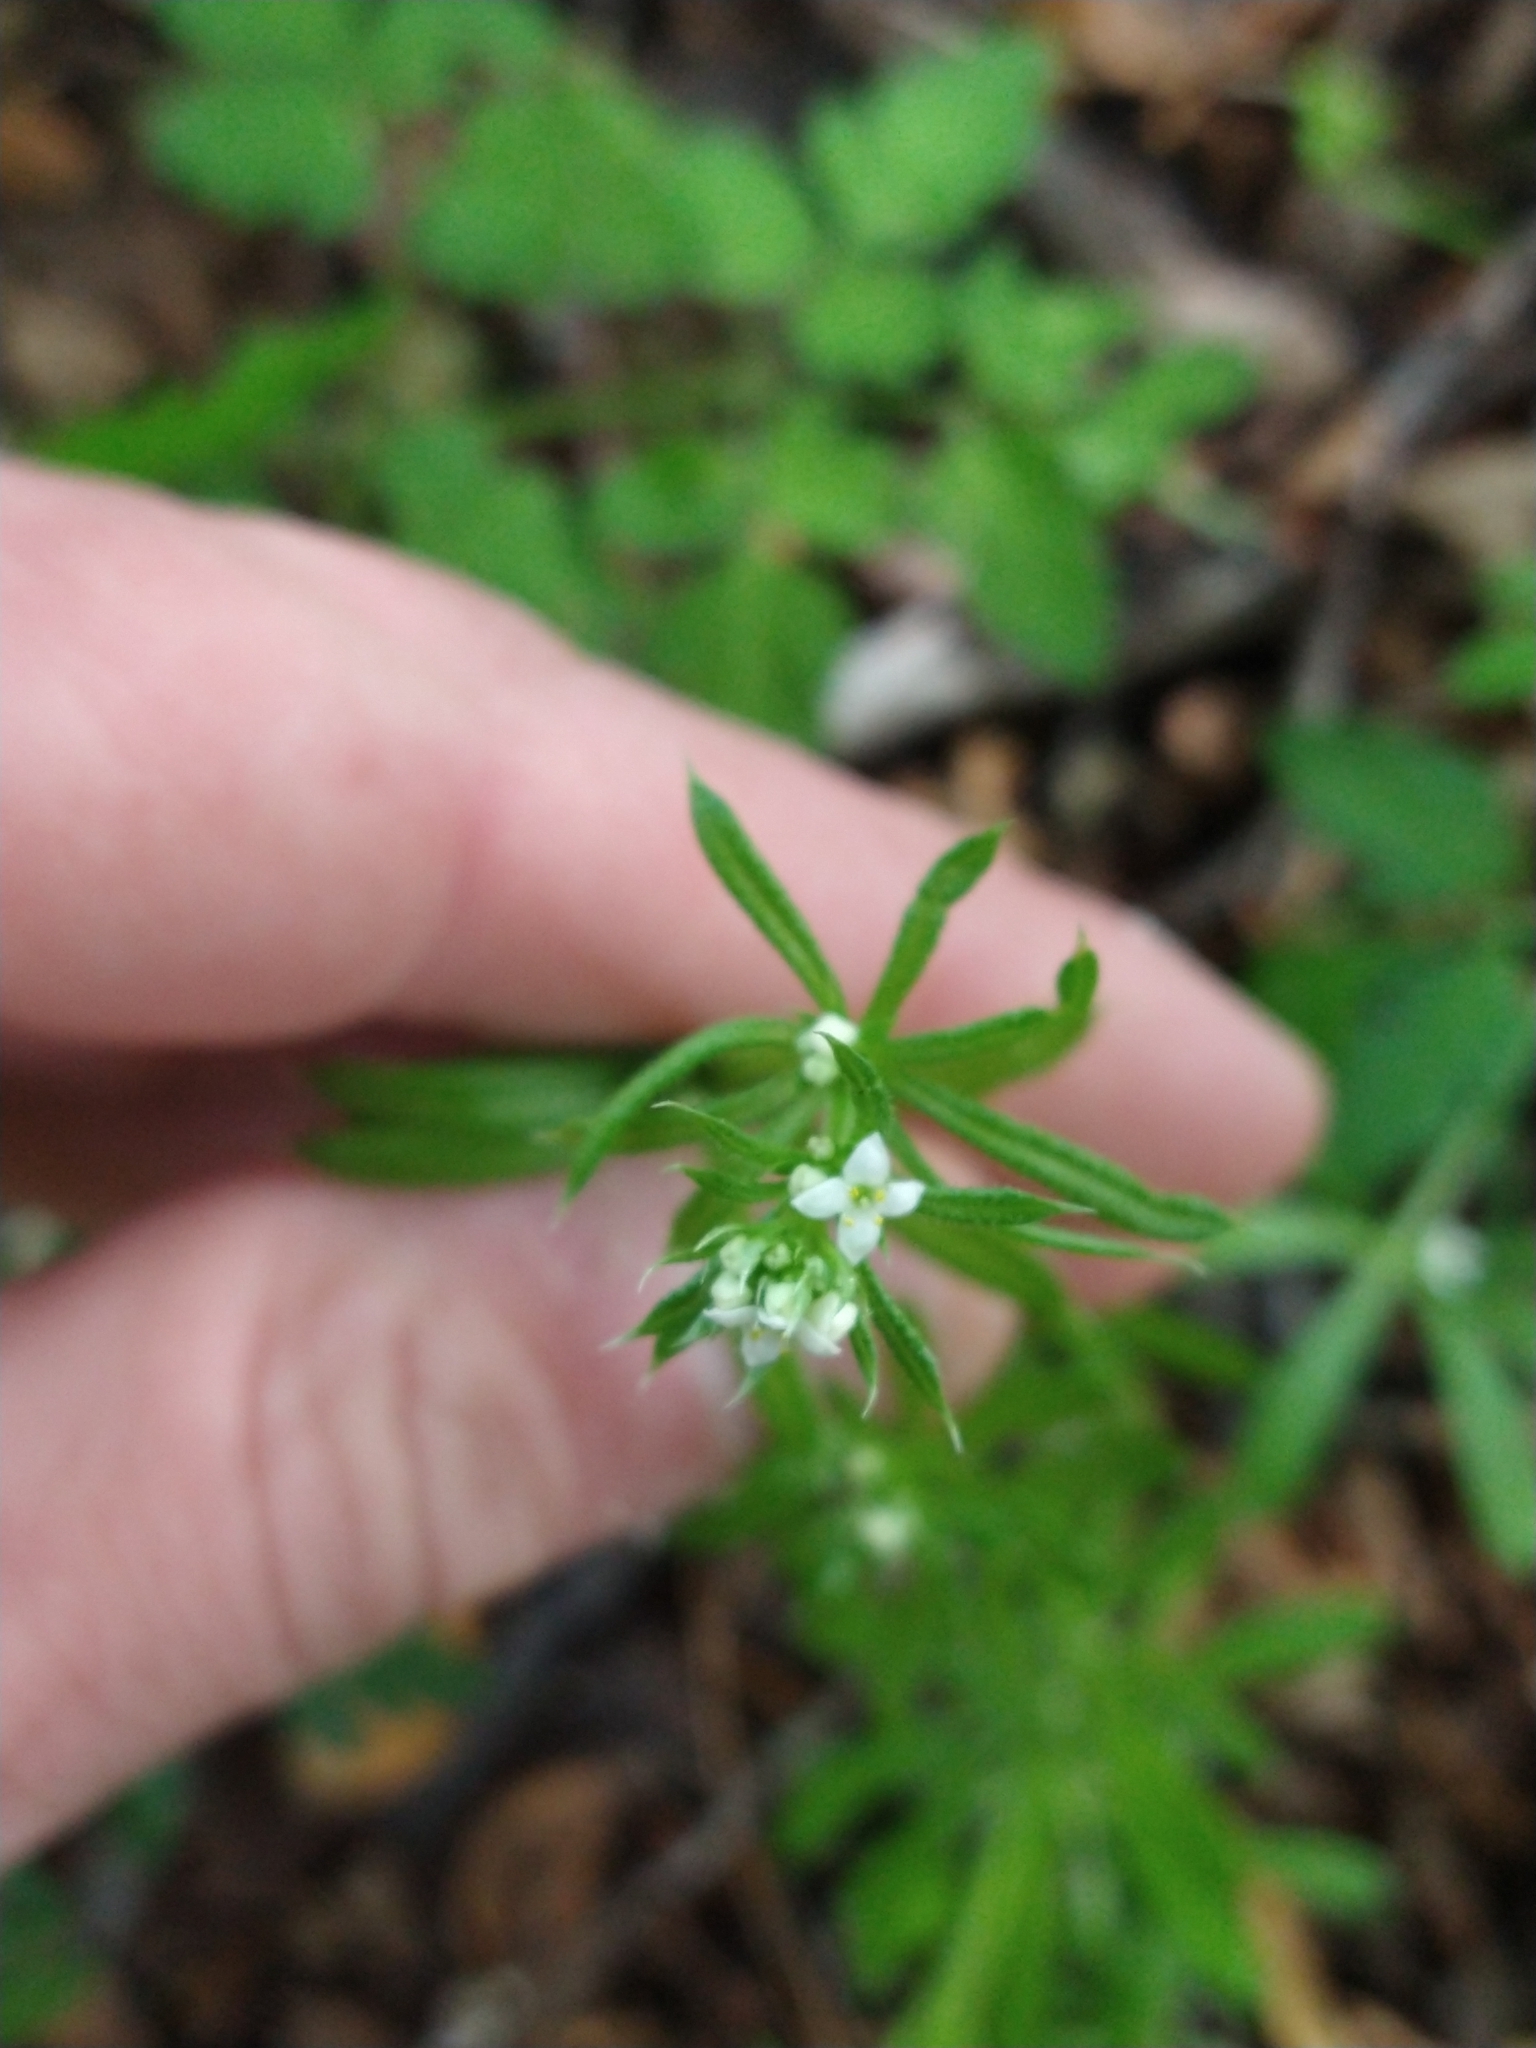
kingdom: Plantae
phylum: Tracheophyta
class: Magnoliopsida
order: Gentianales
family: Rubiaceae
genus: Galium
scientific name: Galium aparine
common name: Cleavers
